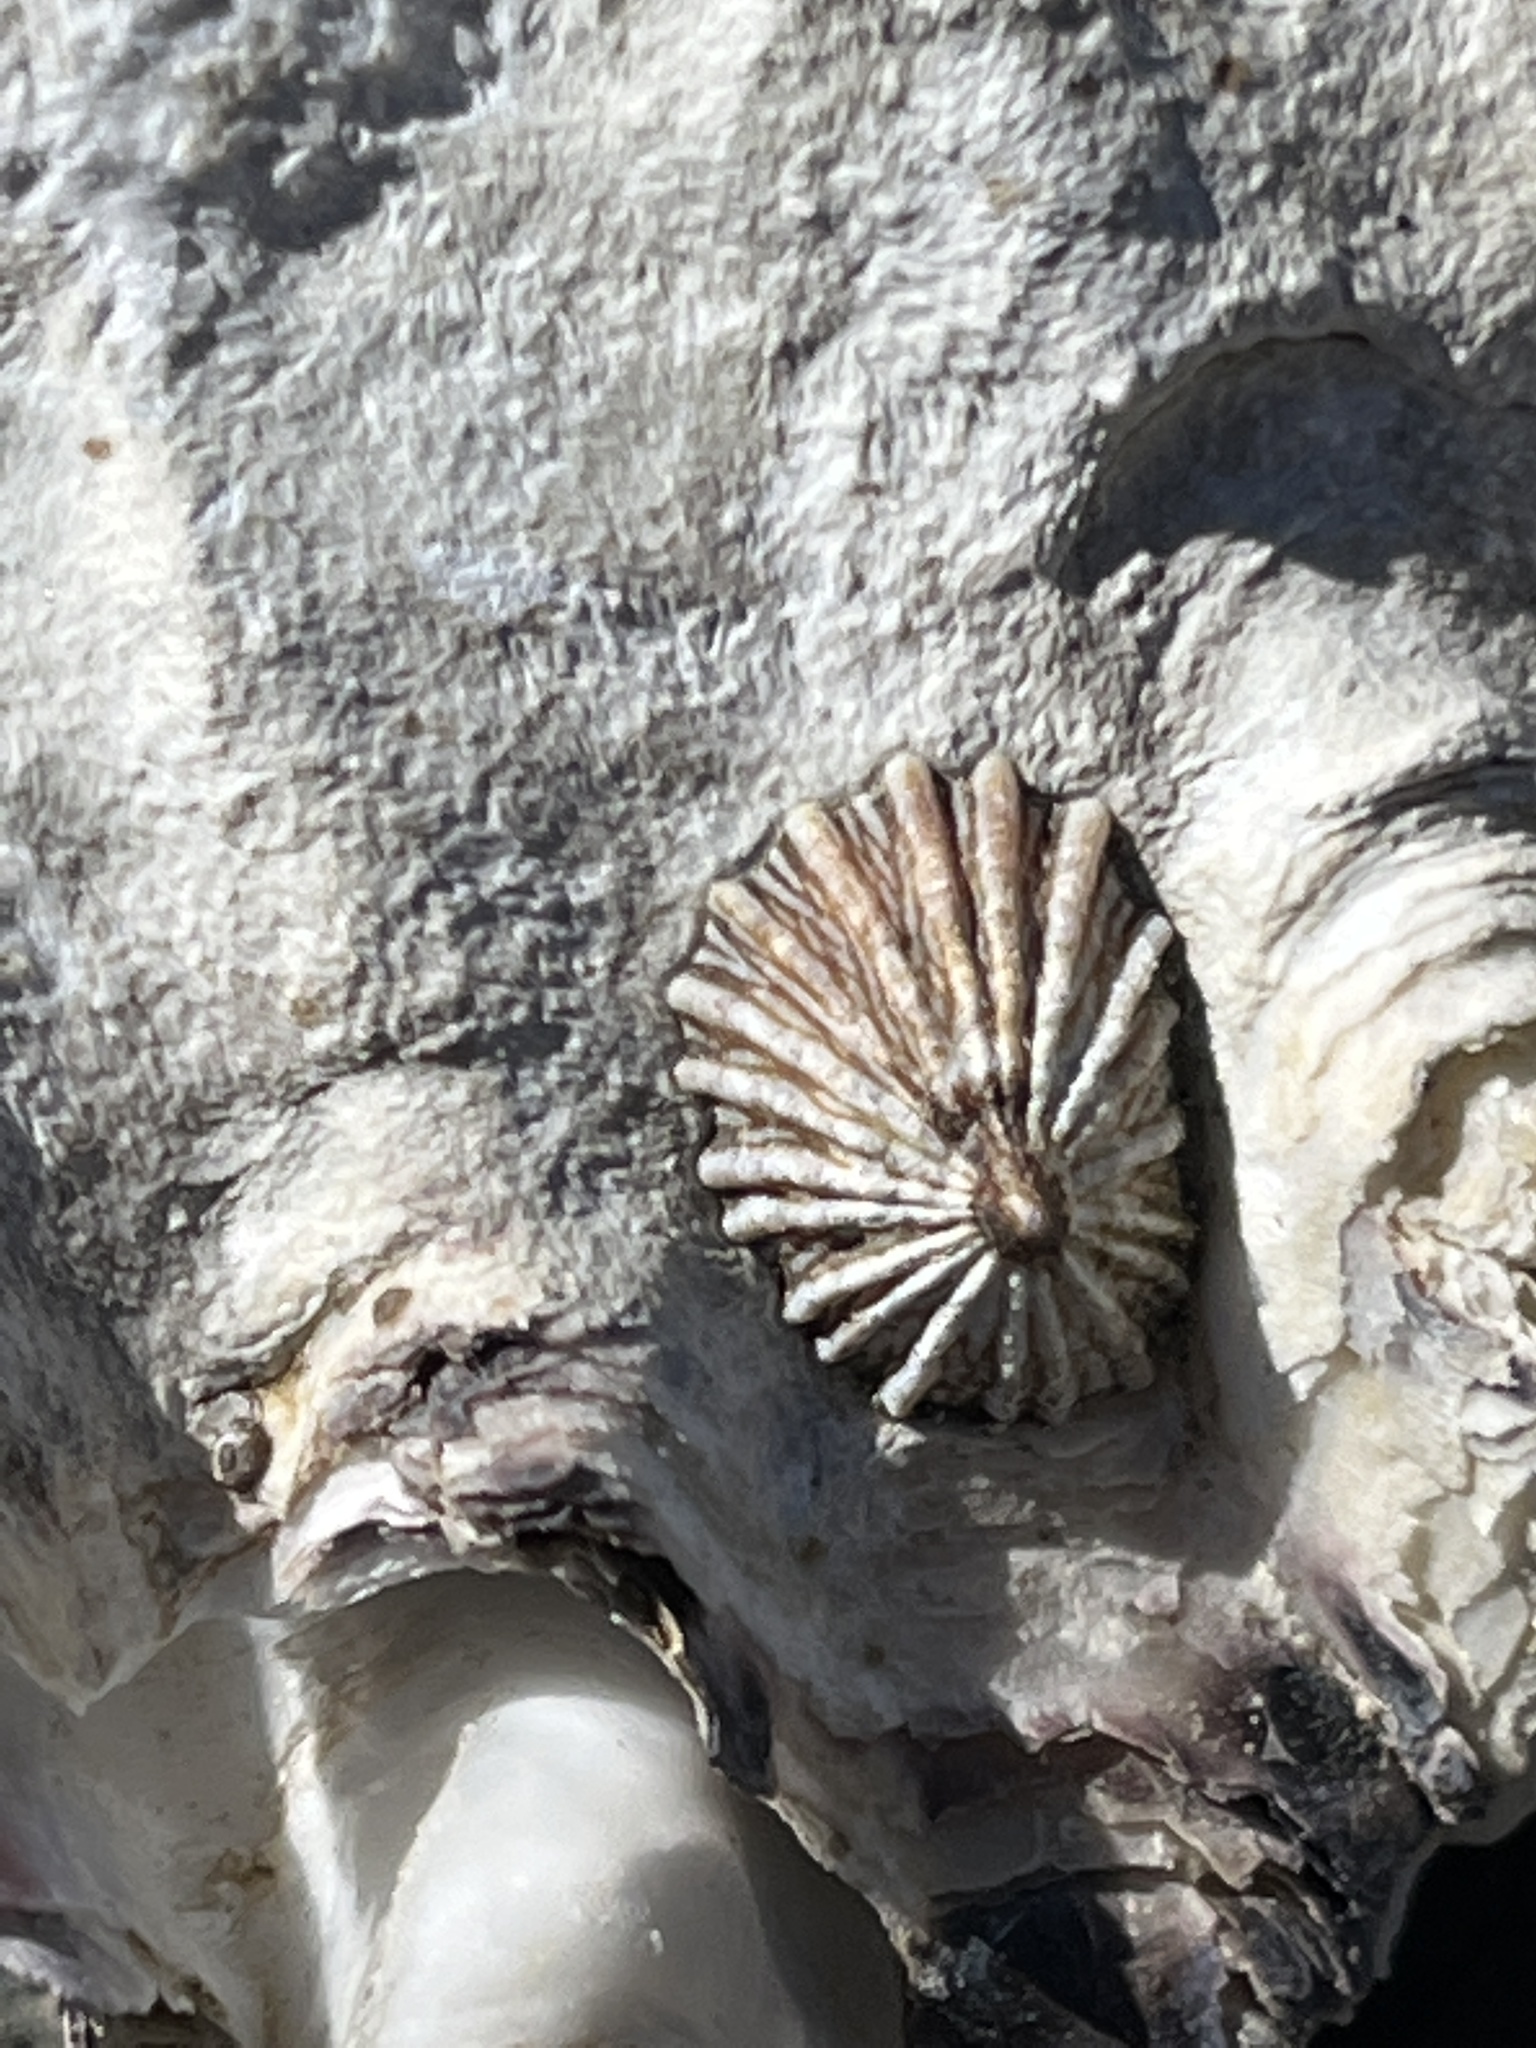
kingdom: Animalia
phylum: Mollusca
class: Gastropoda
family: Lottiidae
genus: Lottia
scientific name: Lottia scabra
